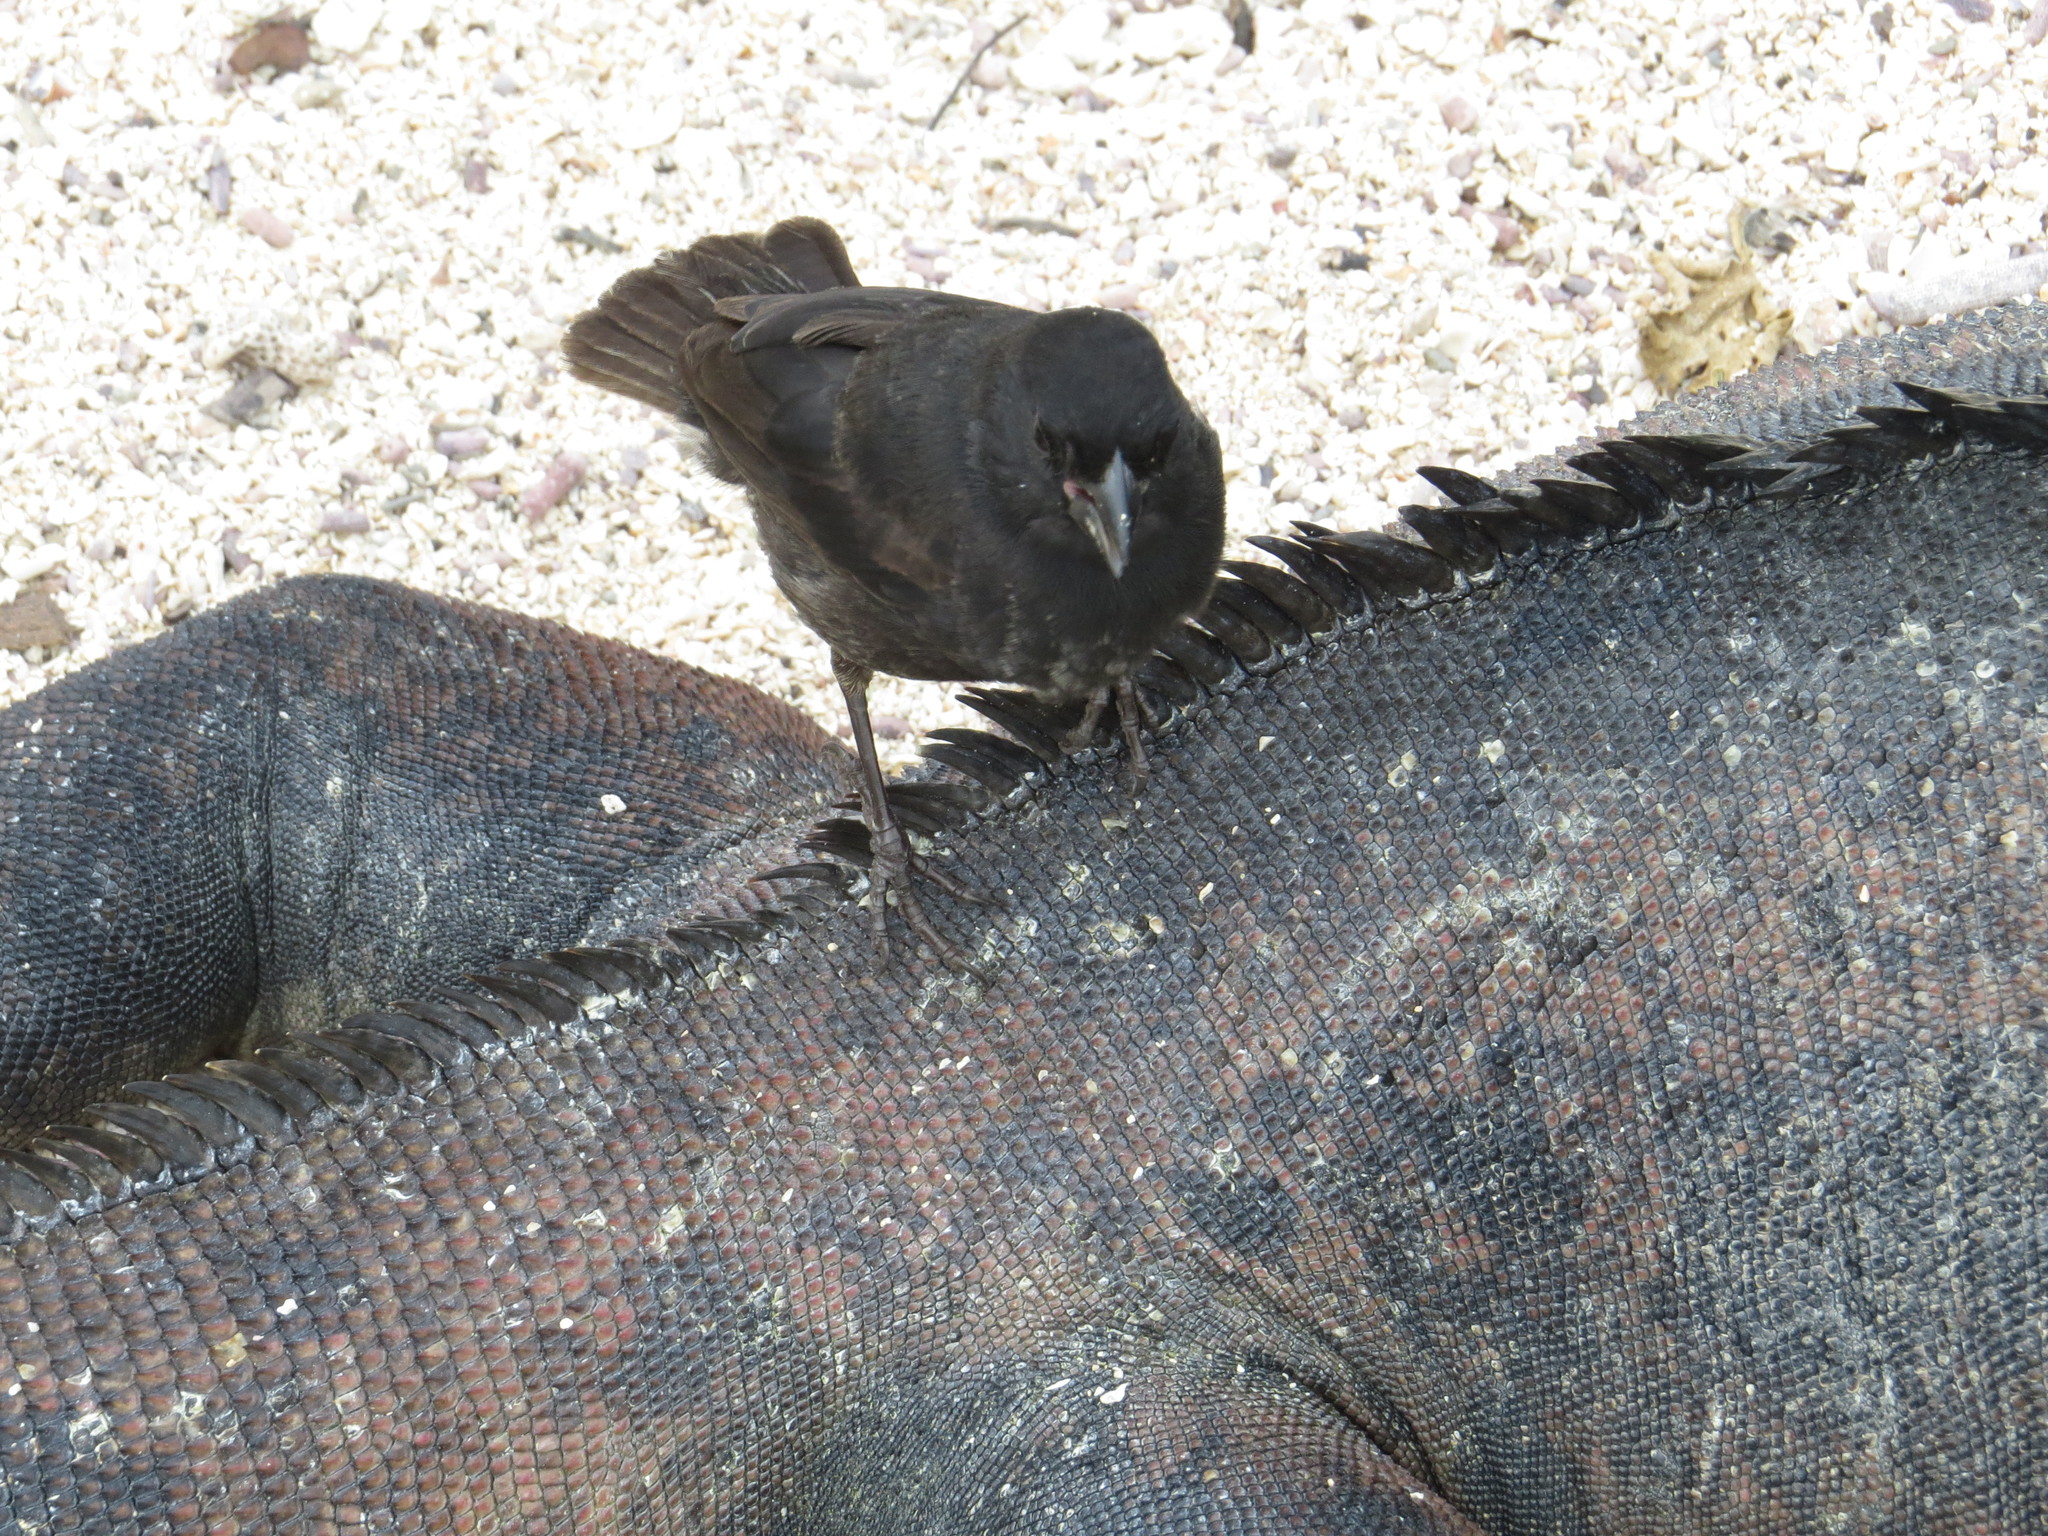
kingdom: Animalia
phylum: Chordata
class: Squamata
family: Iguanidae
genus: Amblyrhynchus
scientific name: Amblyrhynchus cristatus
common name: Marine iguana
